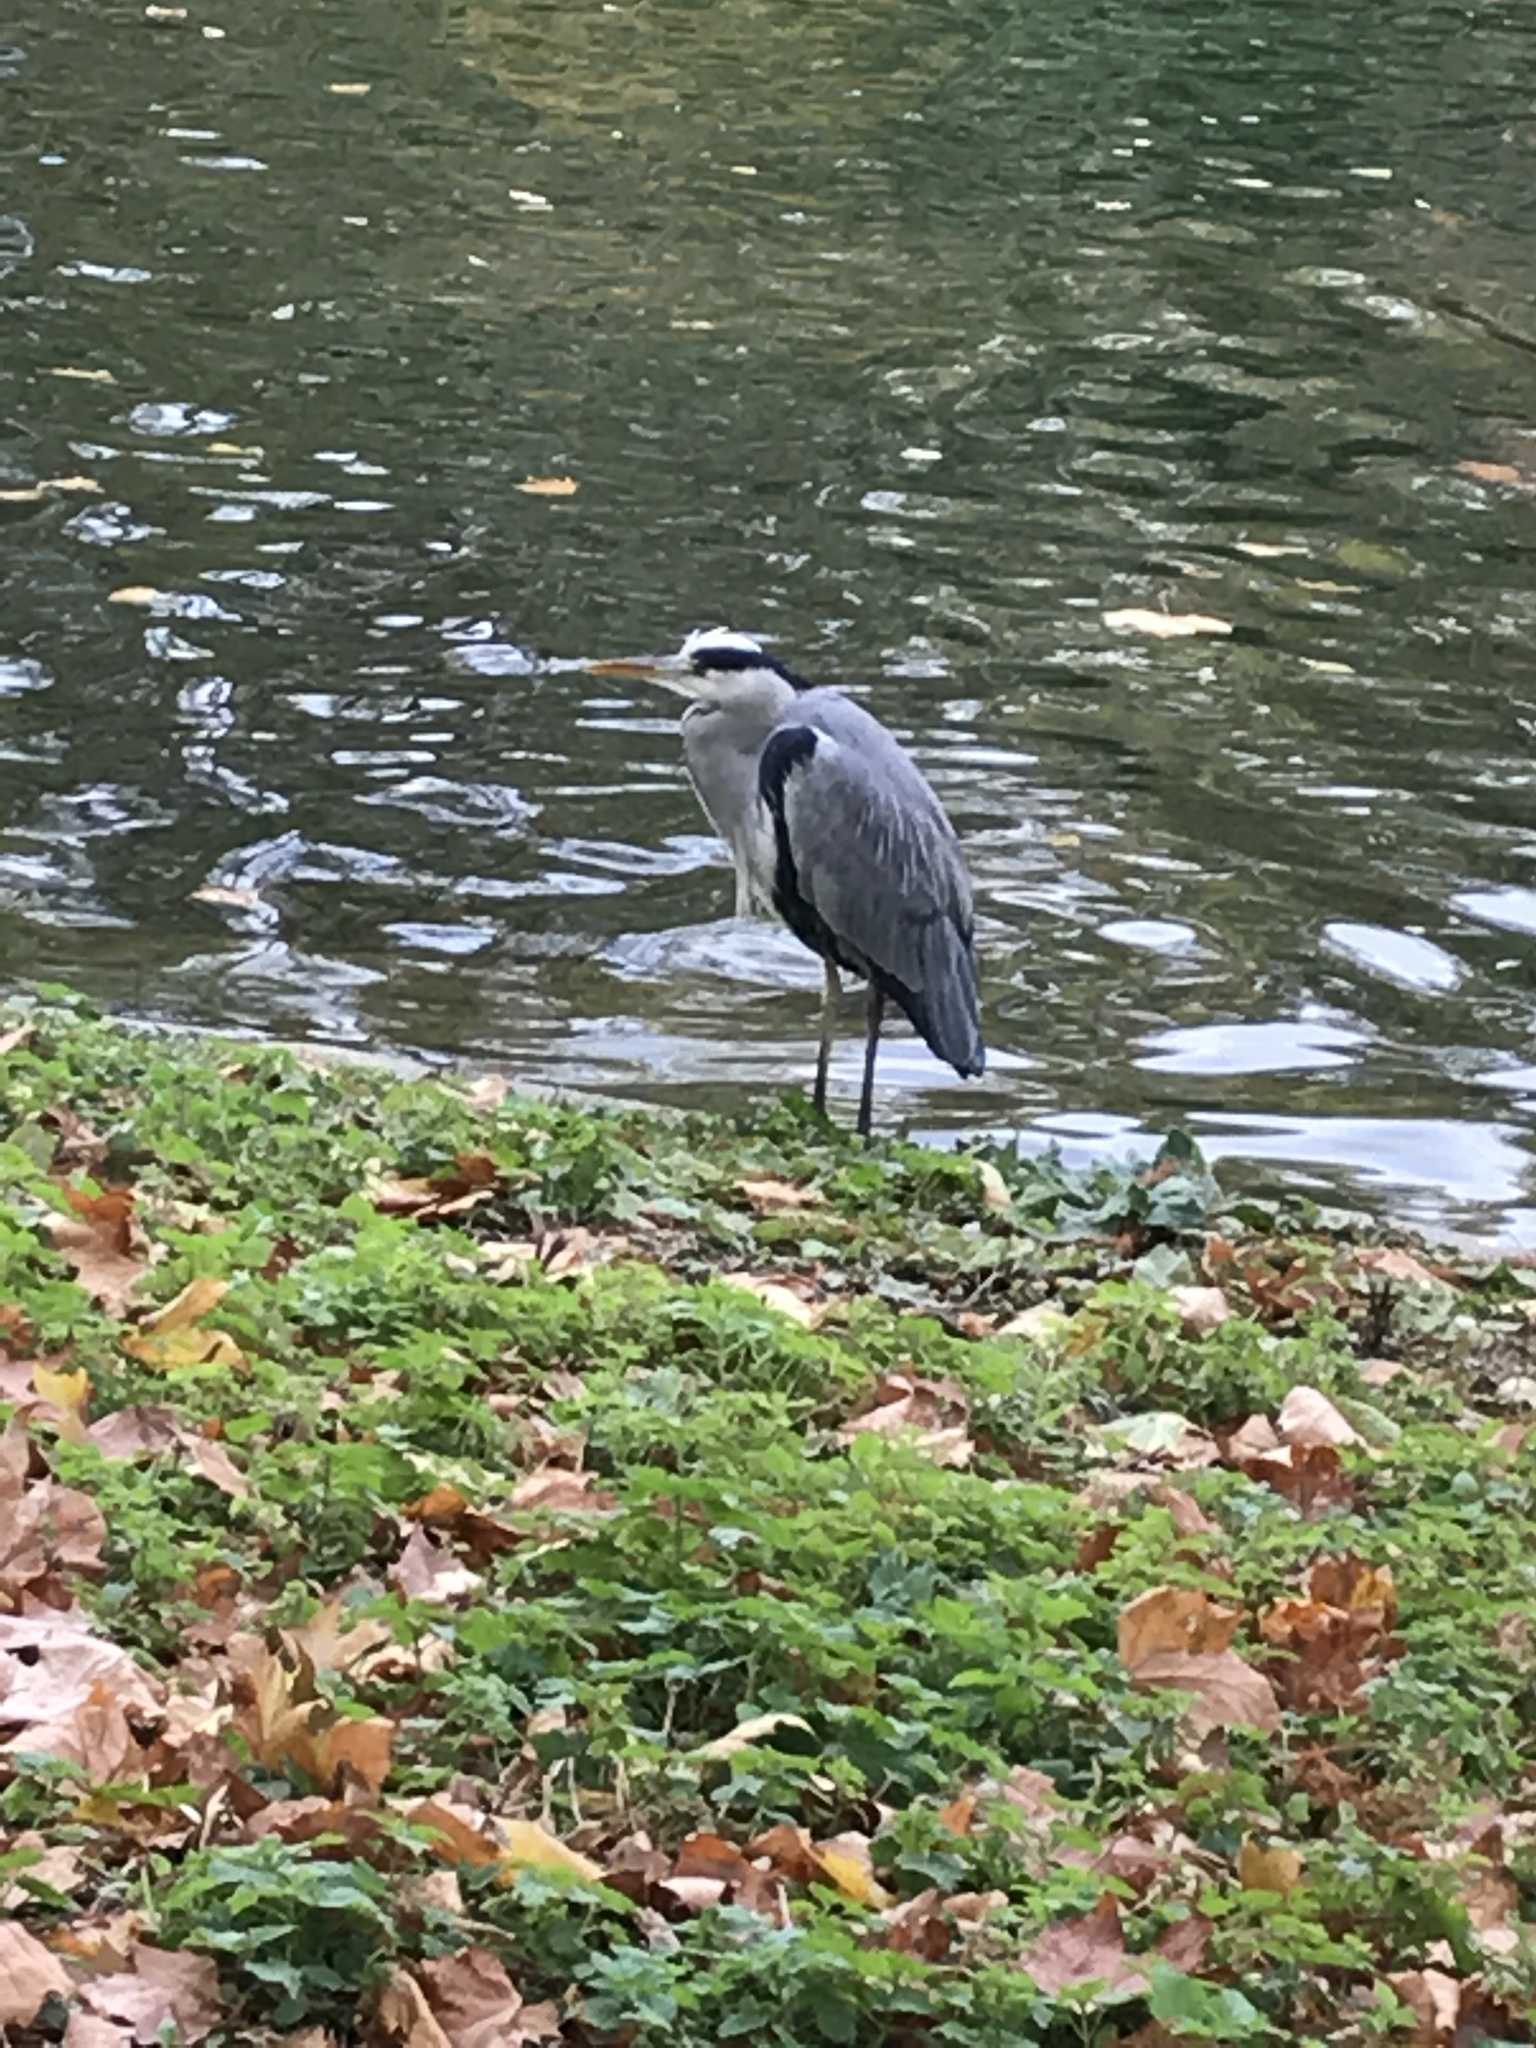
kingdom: Animalia
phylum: Chordata
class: Aves
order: Pelecaniformes
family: Ardeidae
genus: Ardea
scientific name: Ardea cinerea
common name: Grey heron
